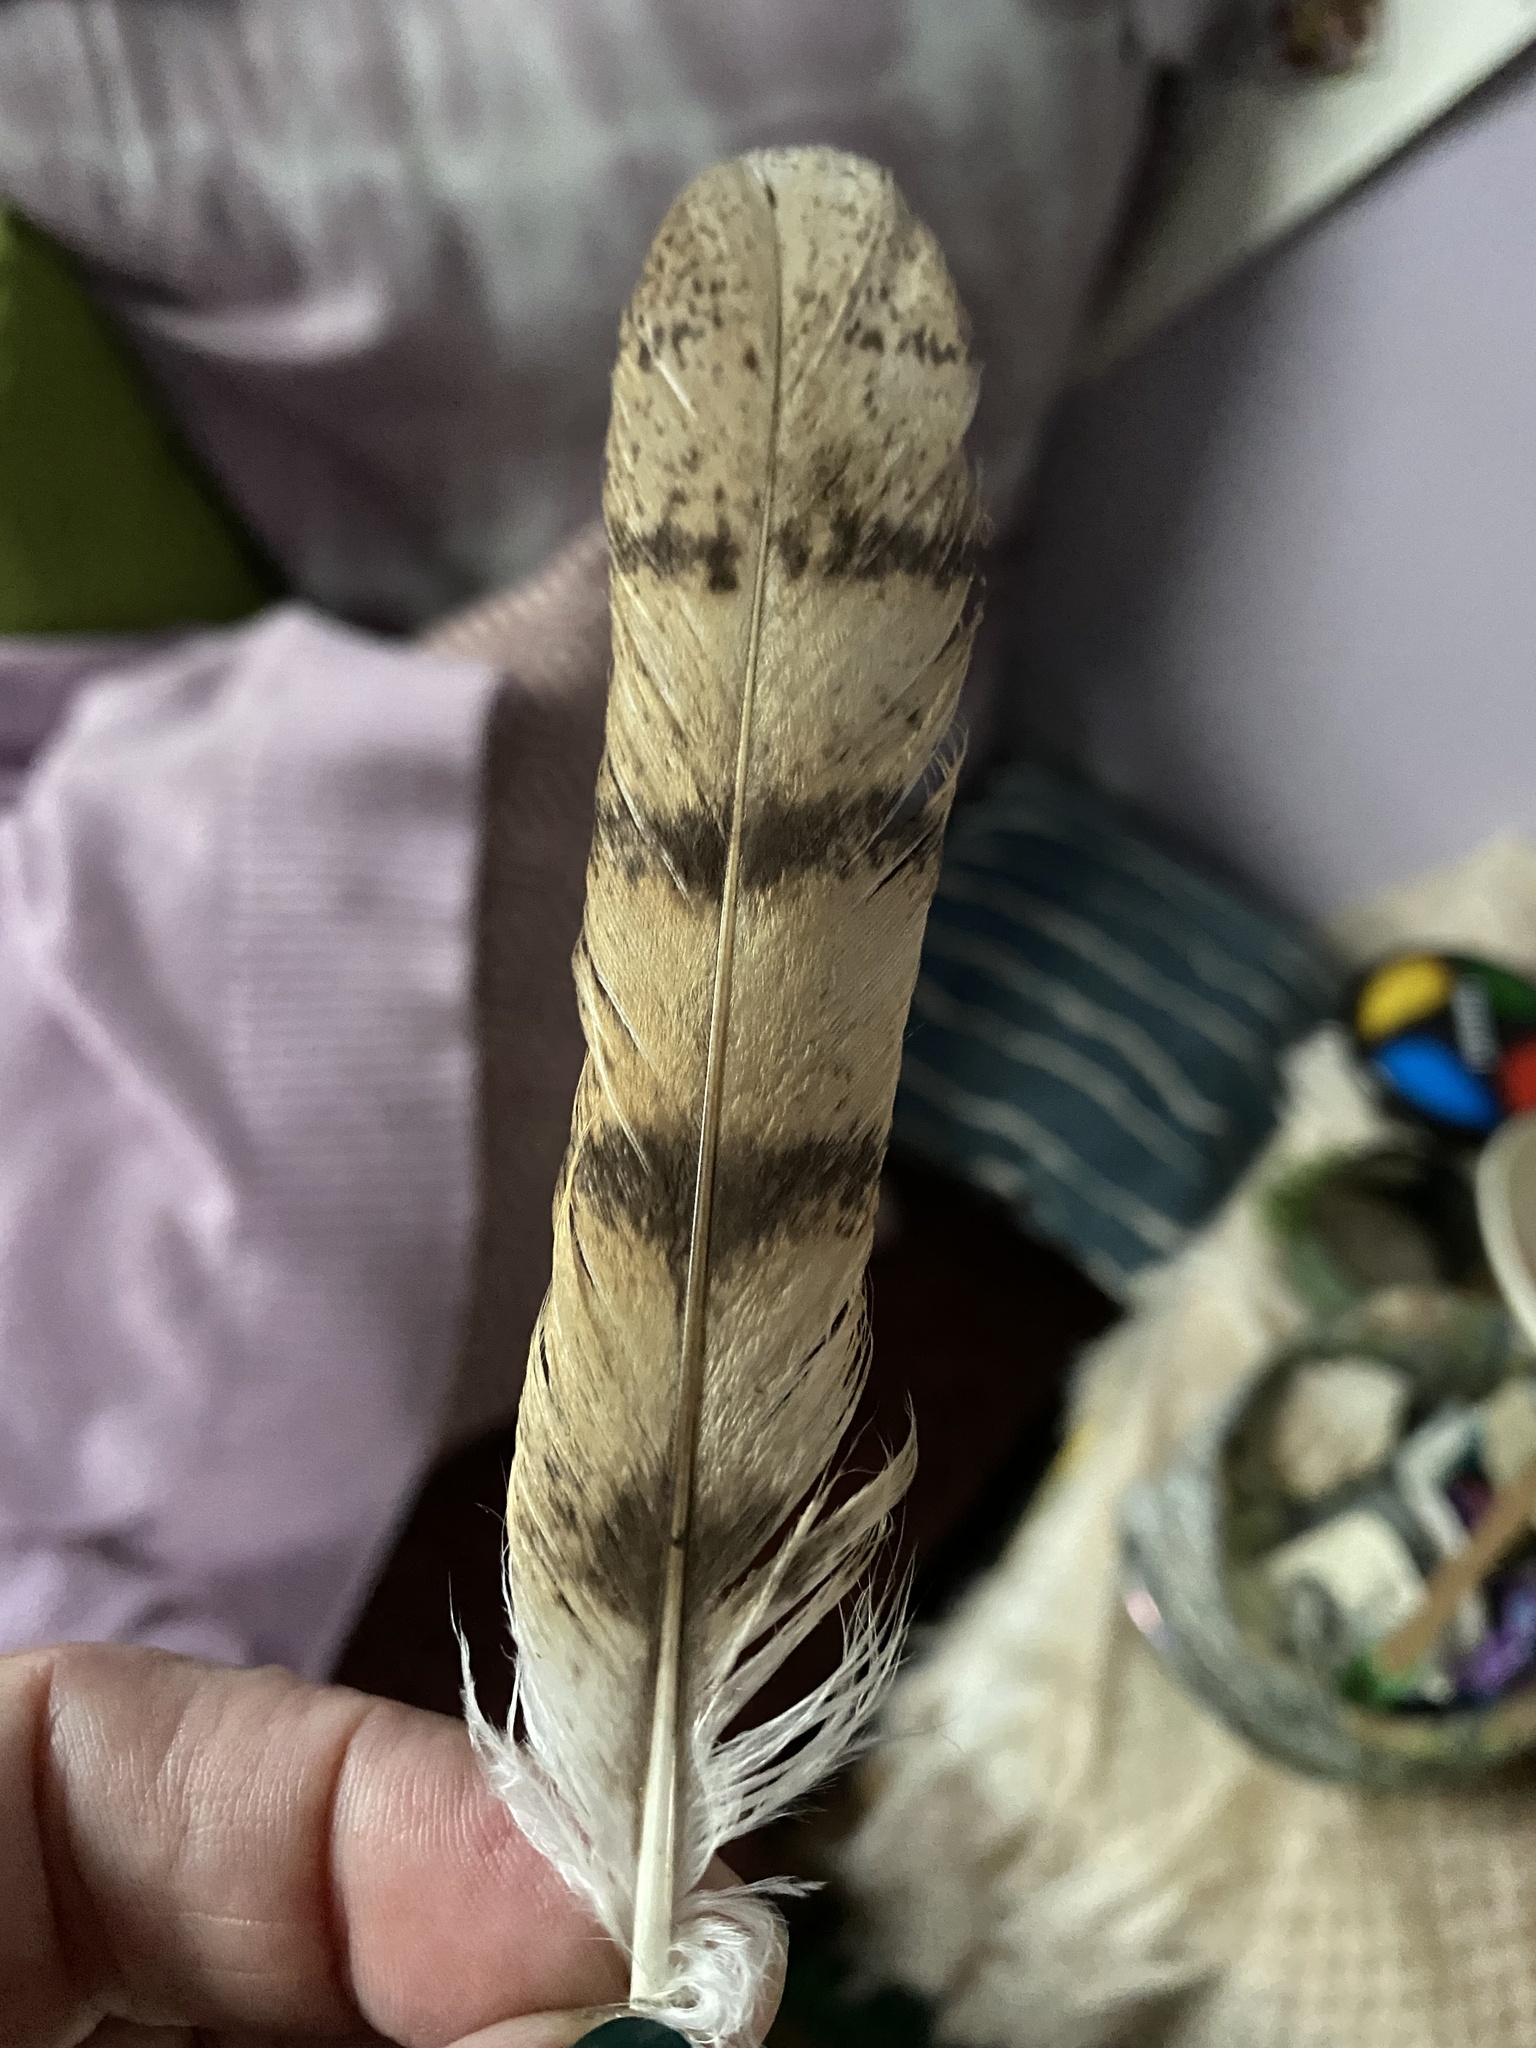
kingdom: Animalia
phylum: Chordata
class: Aves
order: Strigiformes
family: Tytonidae
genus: Tyto
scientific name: Tyto alba
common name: Barn owl
